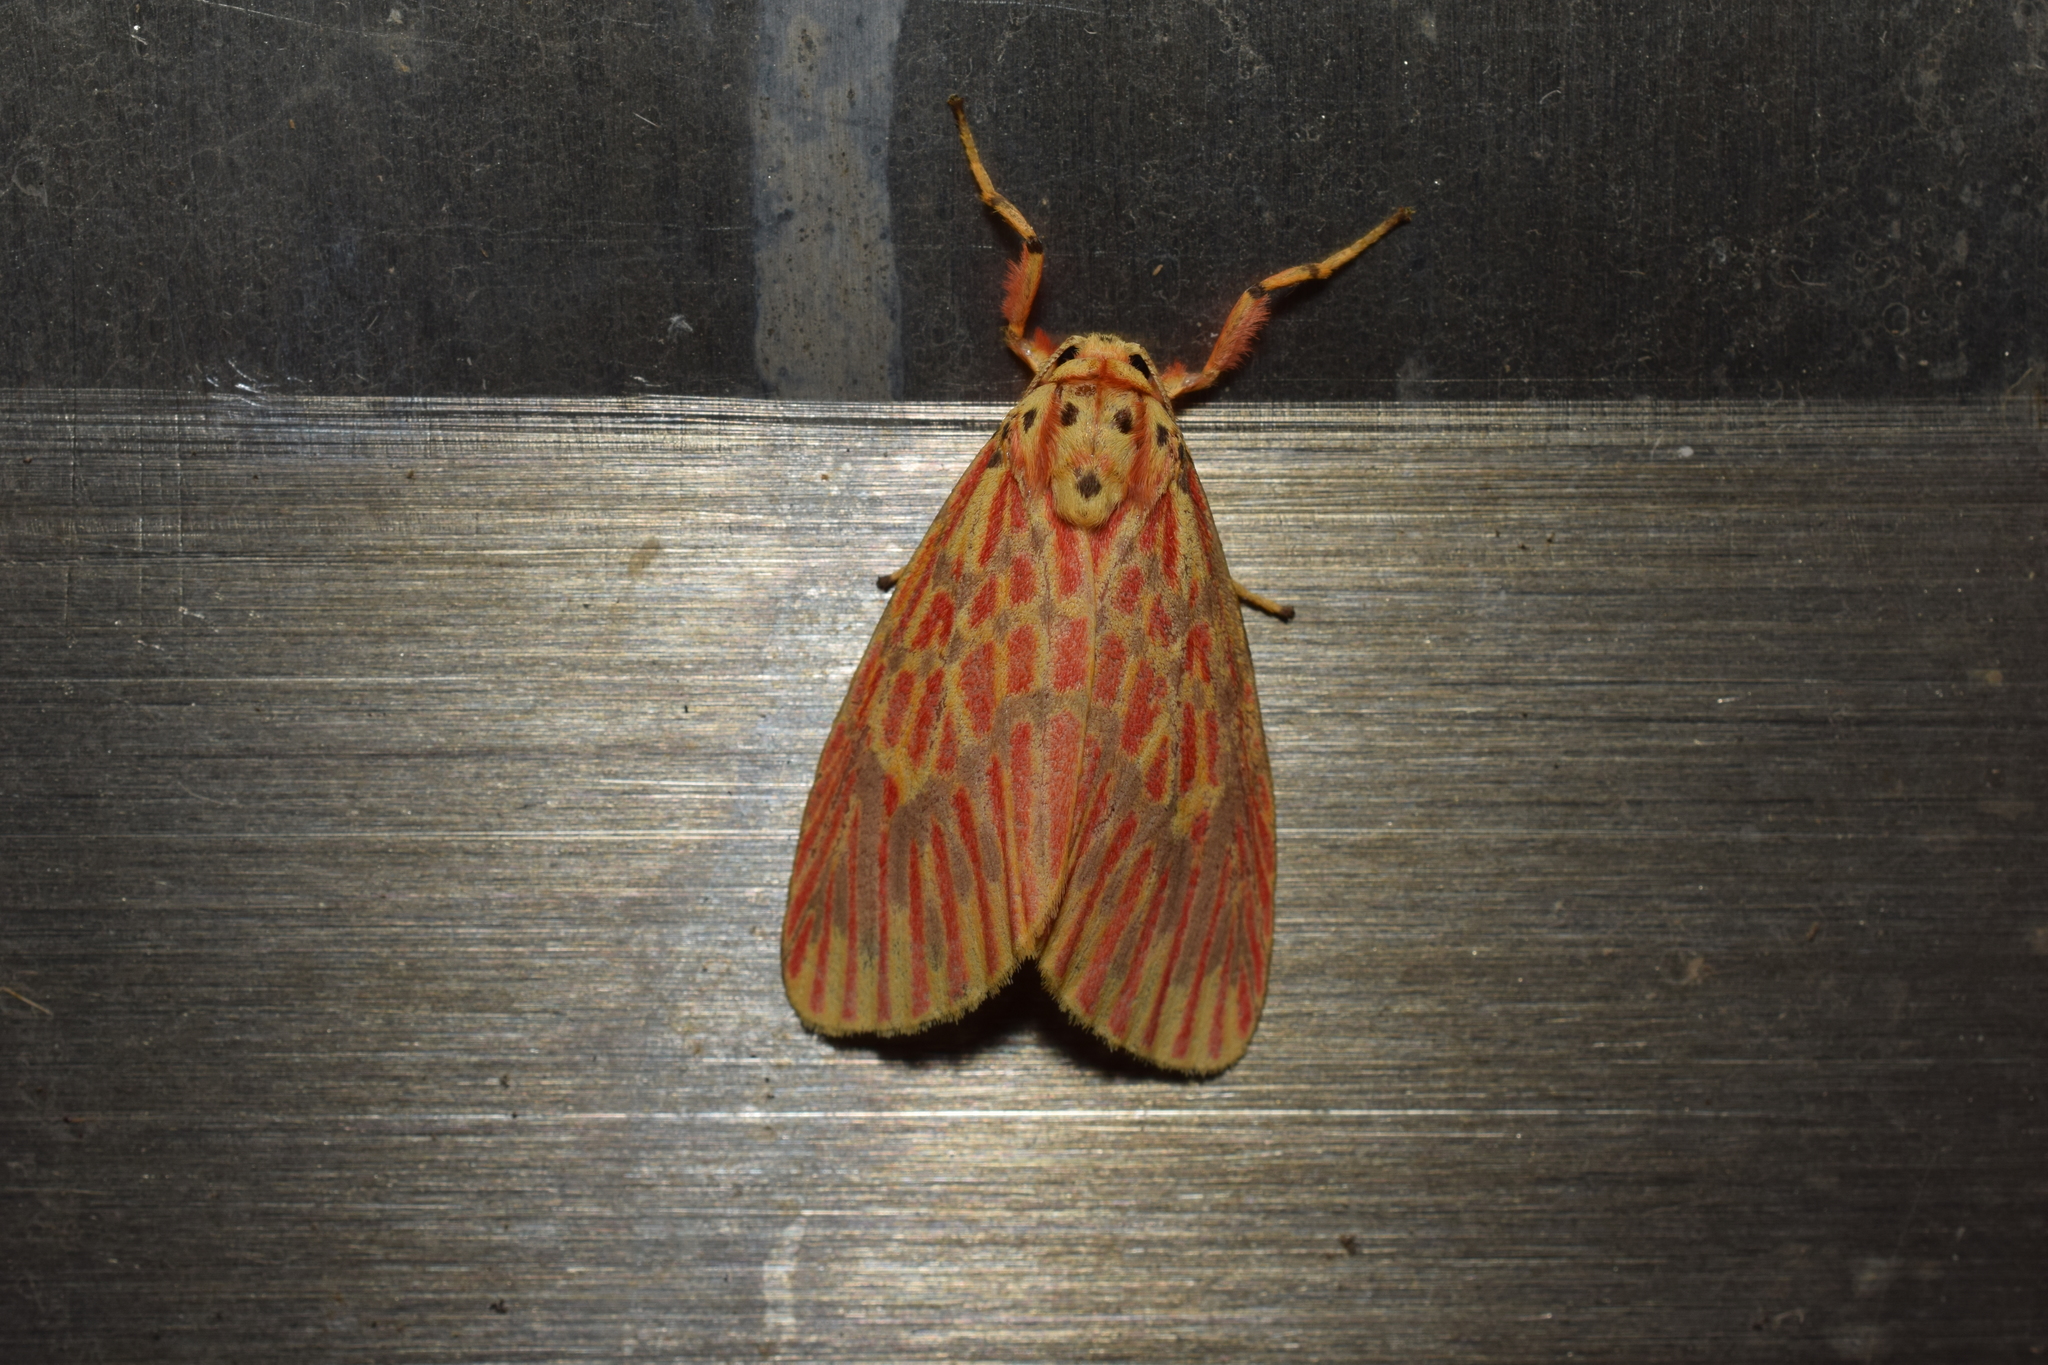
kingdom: Animalia
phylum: Arthropoda
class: Insecta
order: Lepidoptera
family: Erebidae
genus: Barsine
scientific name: Barsine striata
